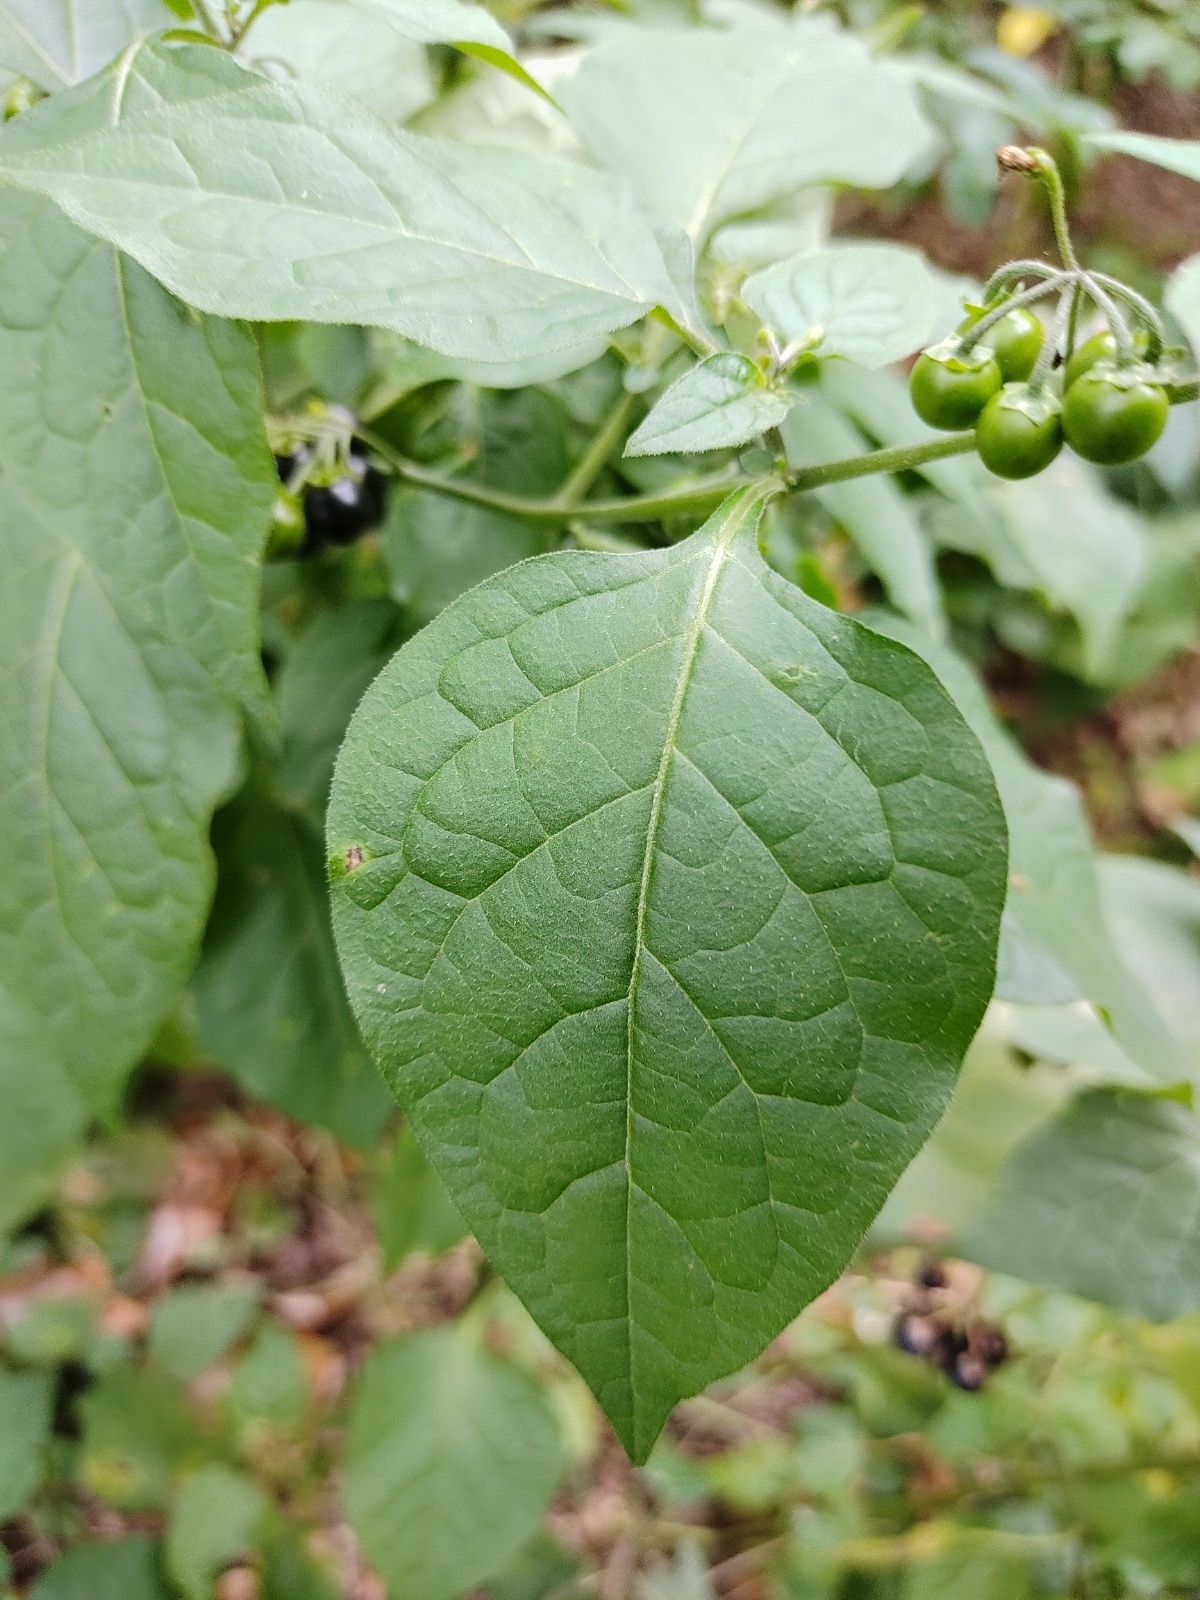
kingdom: Plantae
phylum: Tracheophyta
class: Magnoliopsida
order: Solanales
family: Solanaceae
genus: Solanum
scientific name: Solanum nigrum
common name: Black nightshade
